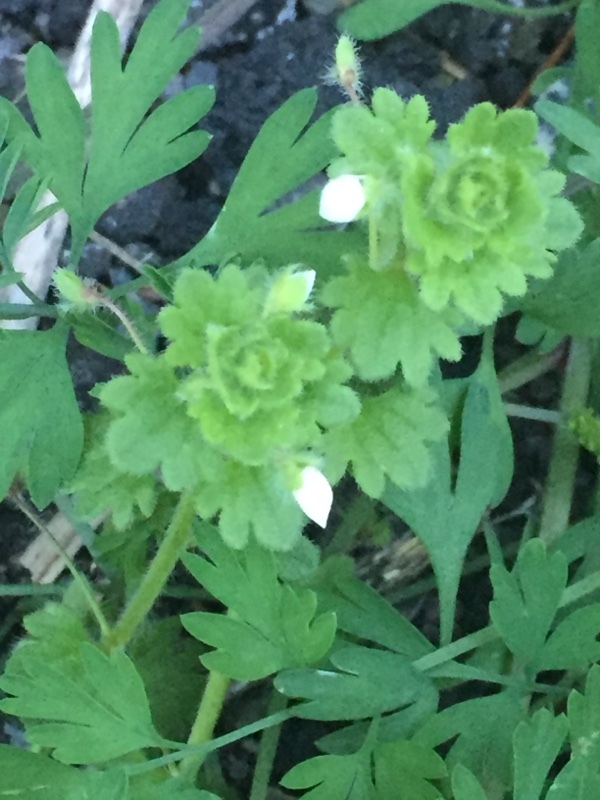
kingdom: Plantae
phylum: Tracheophyta
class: Magnoliopsida
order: Lamiales
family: Plantaginaceae
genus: Veronica
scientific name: Veronica cymbalaria
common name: Pale speedwell
